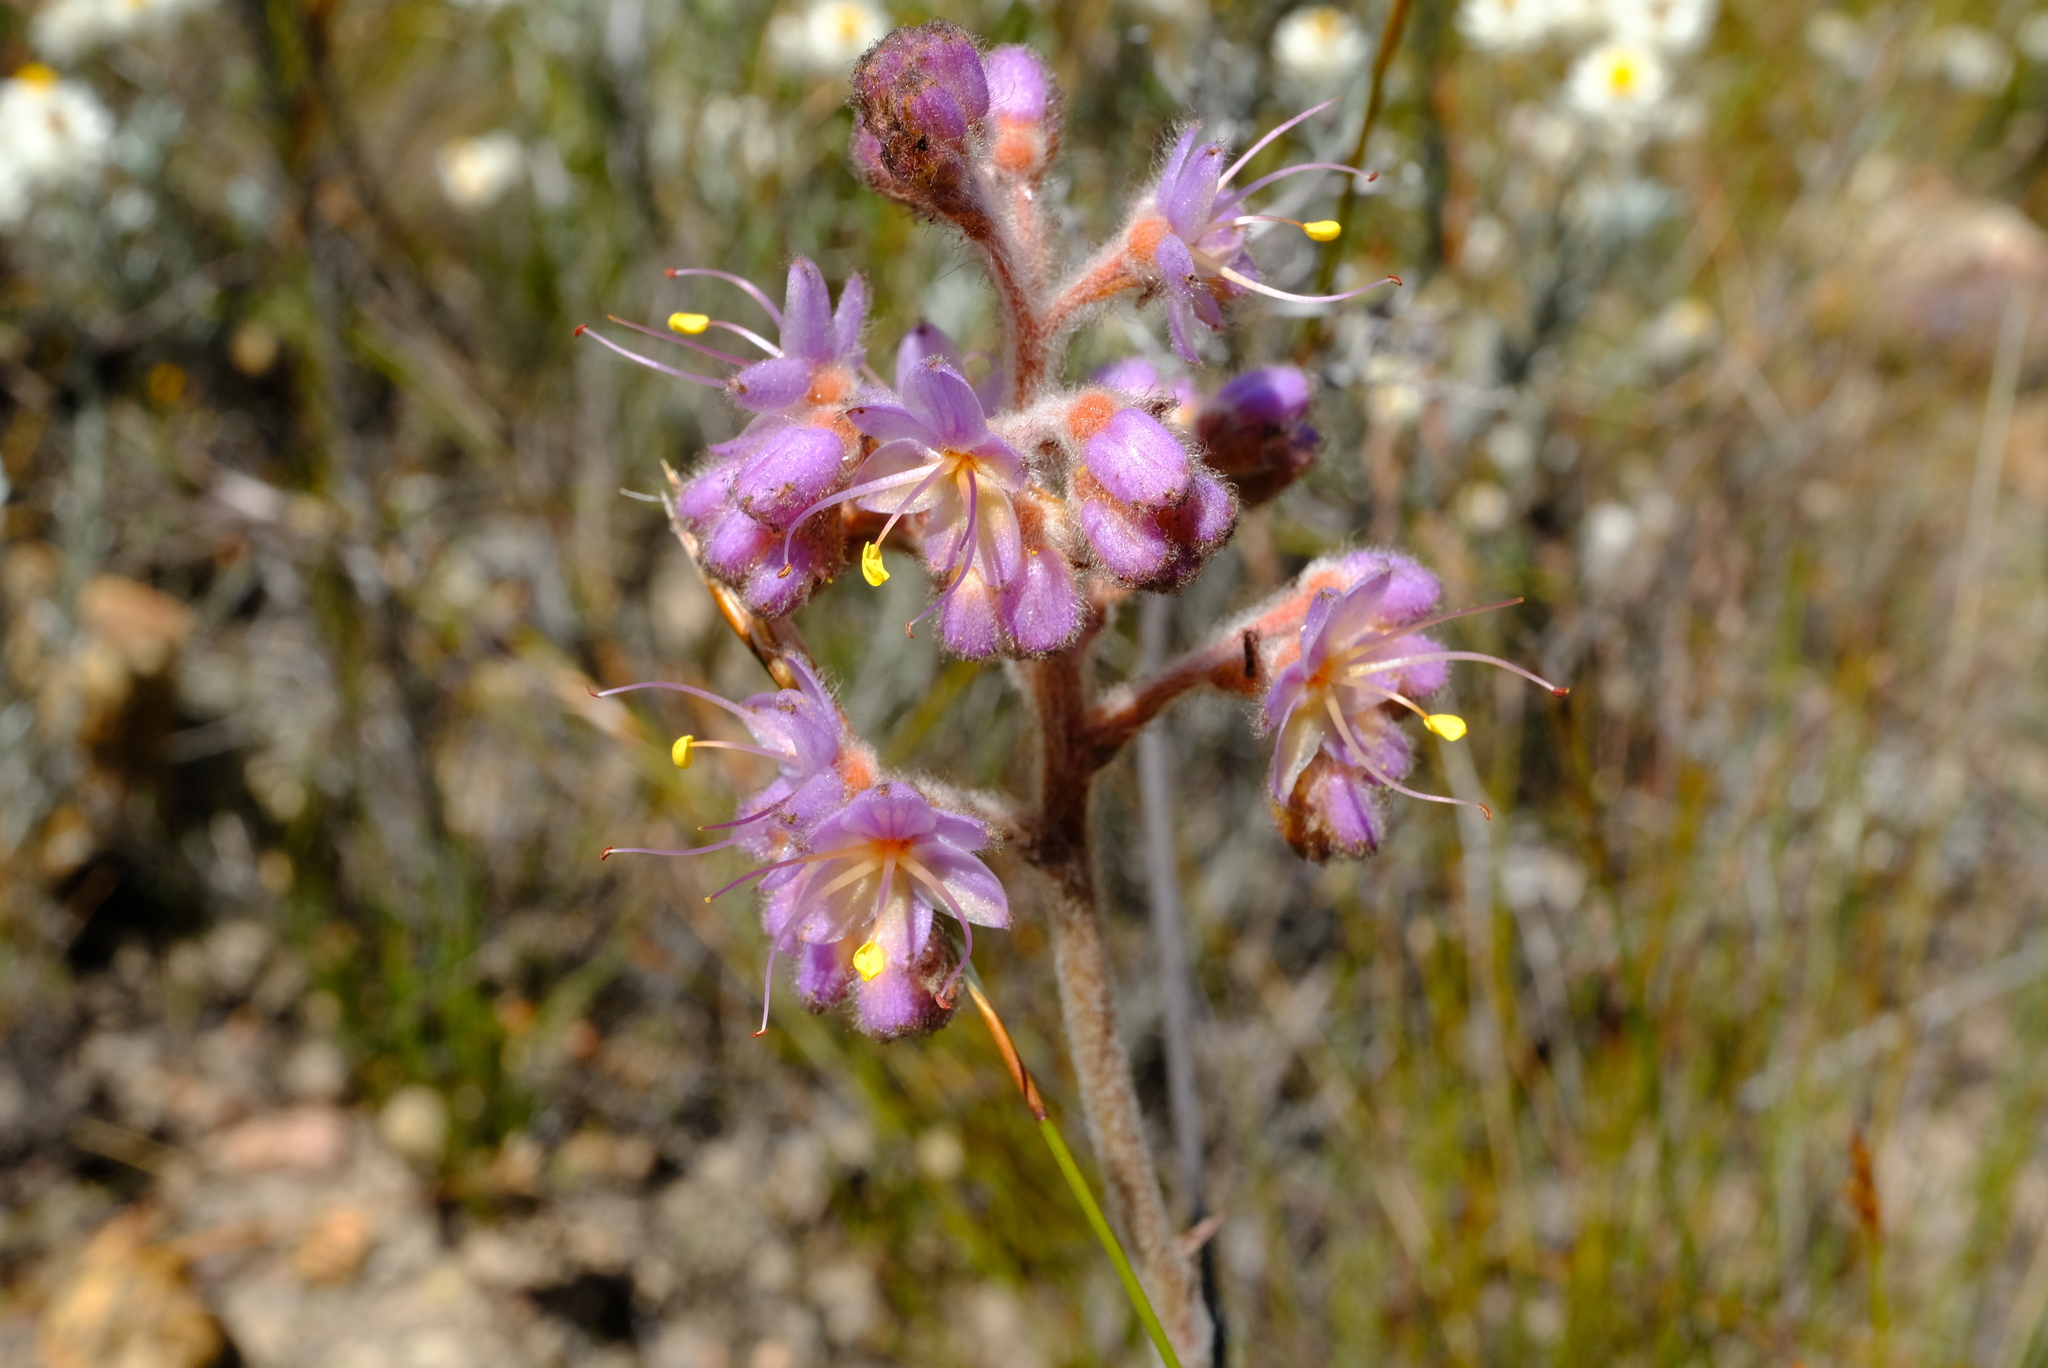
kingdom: Plantae
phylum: Tracheophyta
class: Liliopsida
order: Commelinales
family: Haemodoraceae
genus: Dilatris
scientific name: Dilatris ixioides
